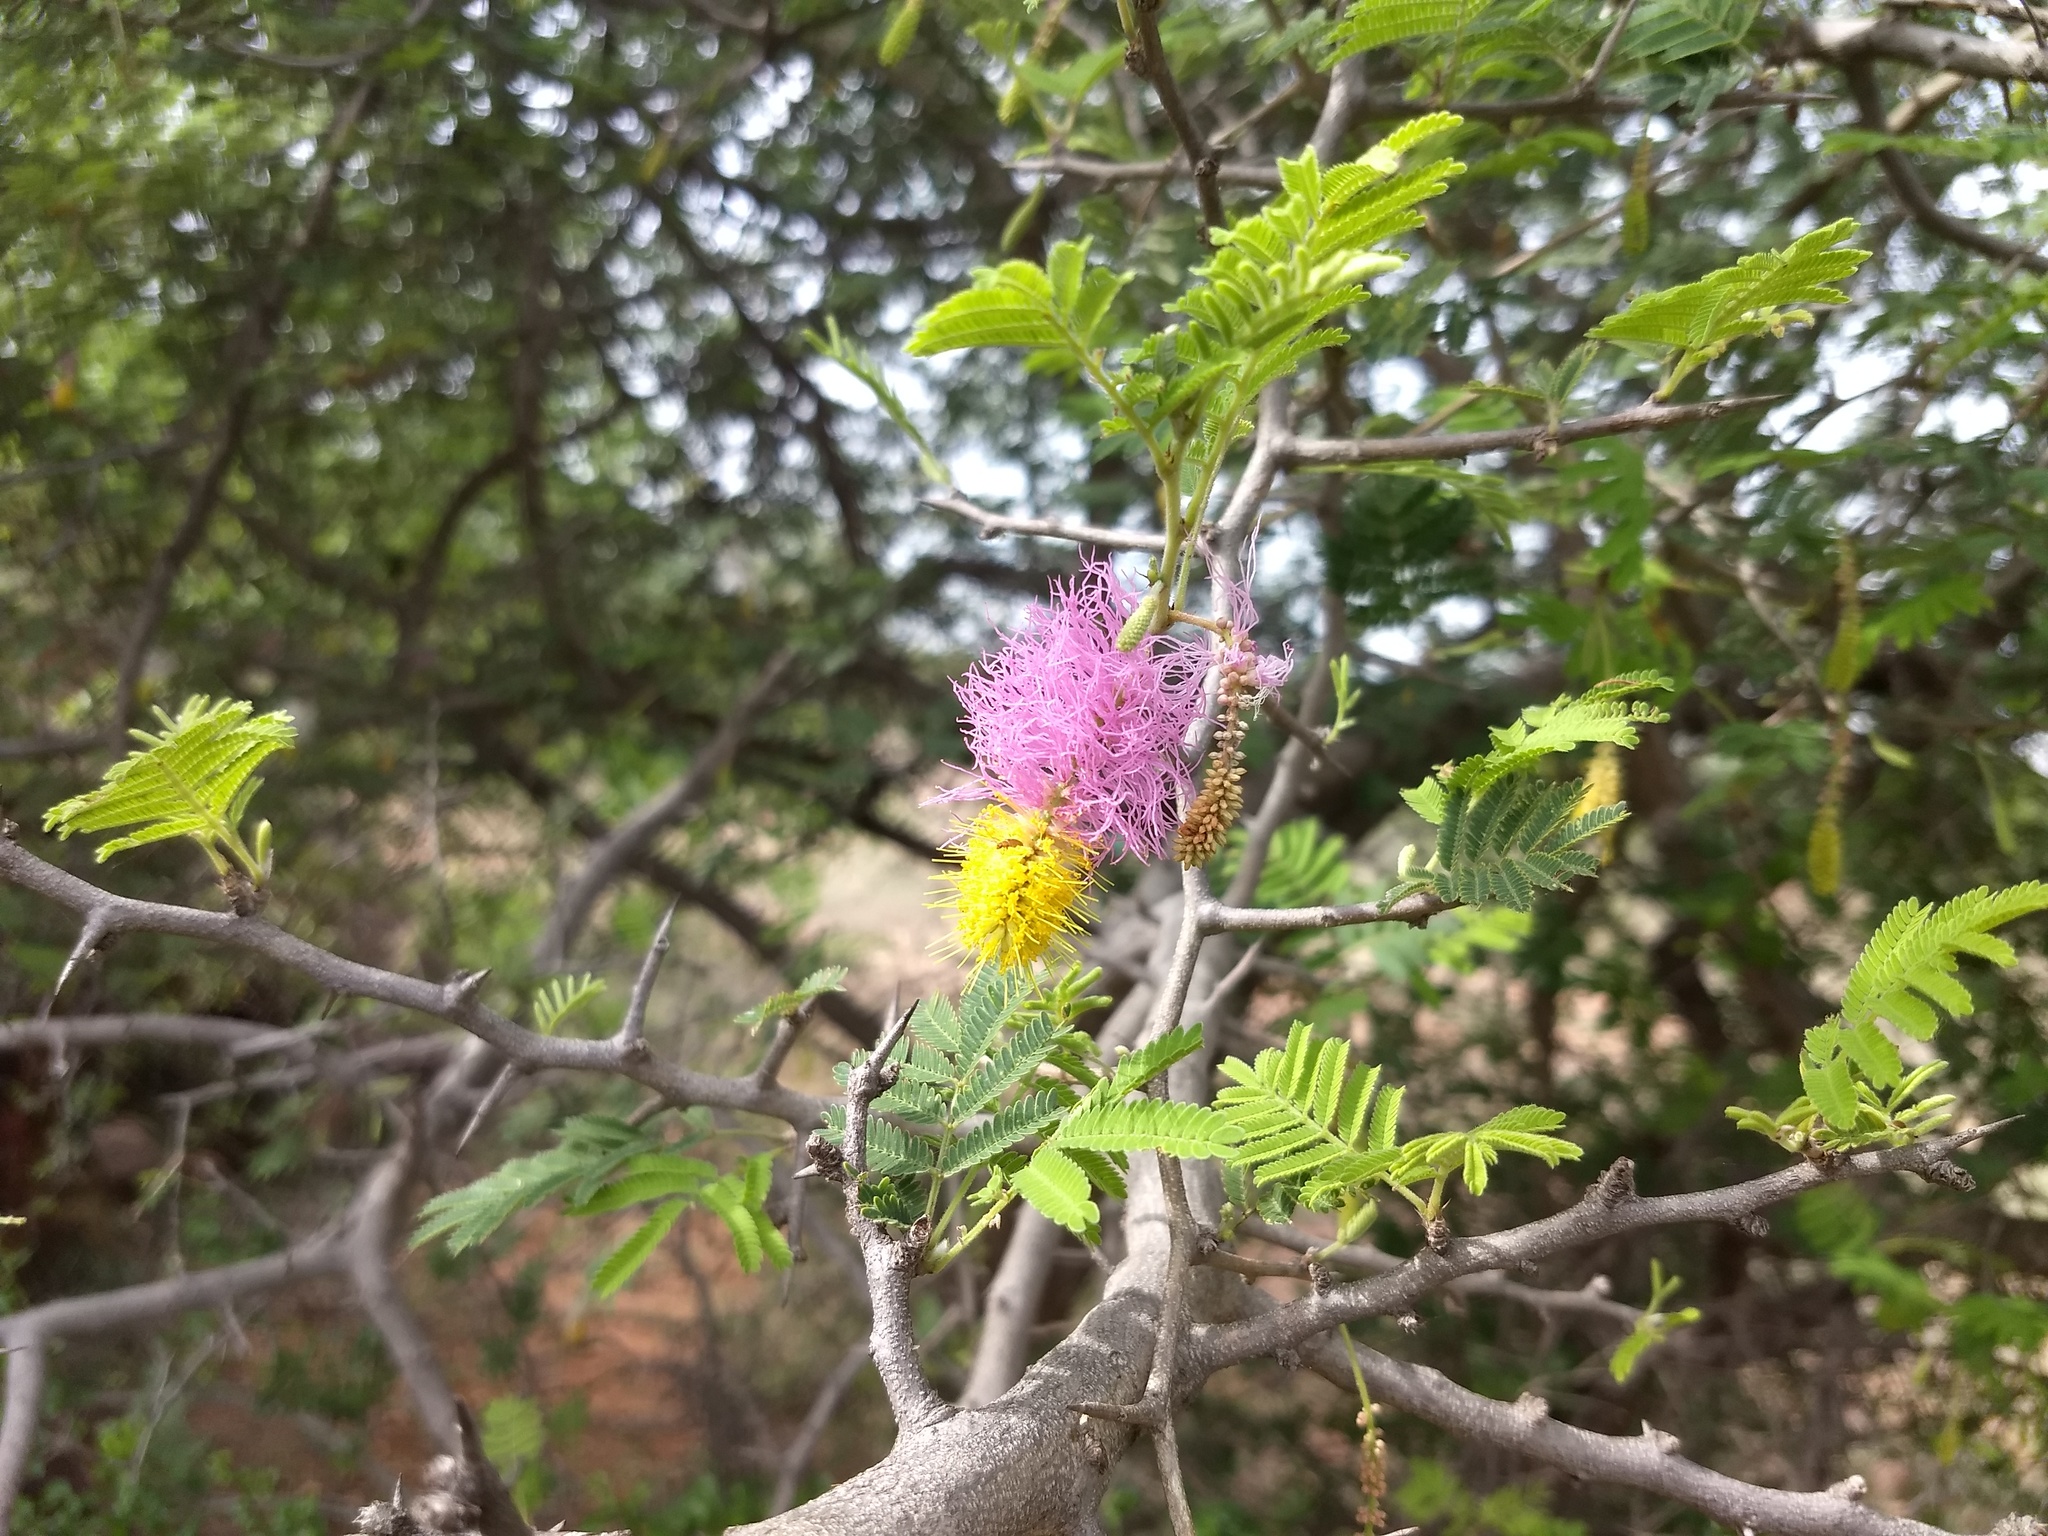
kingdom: Plantae
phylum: Tracheophyta
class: Magnoliopsida
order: Fabales
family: Fabaceae
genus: Dichrostachys
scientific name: Dichrostachys cinerea
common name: Sicklebush
